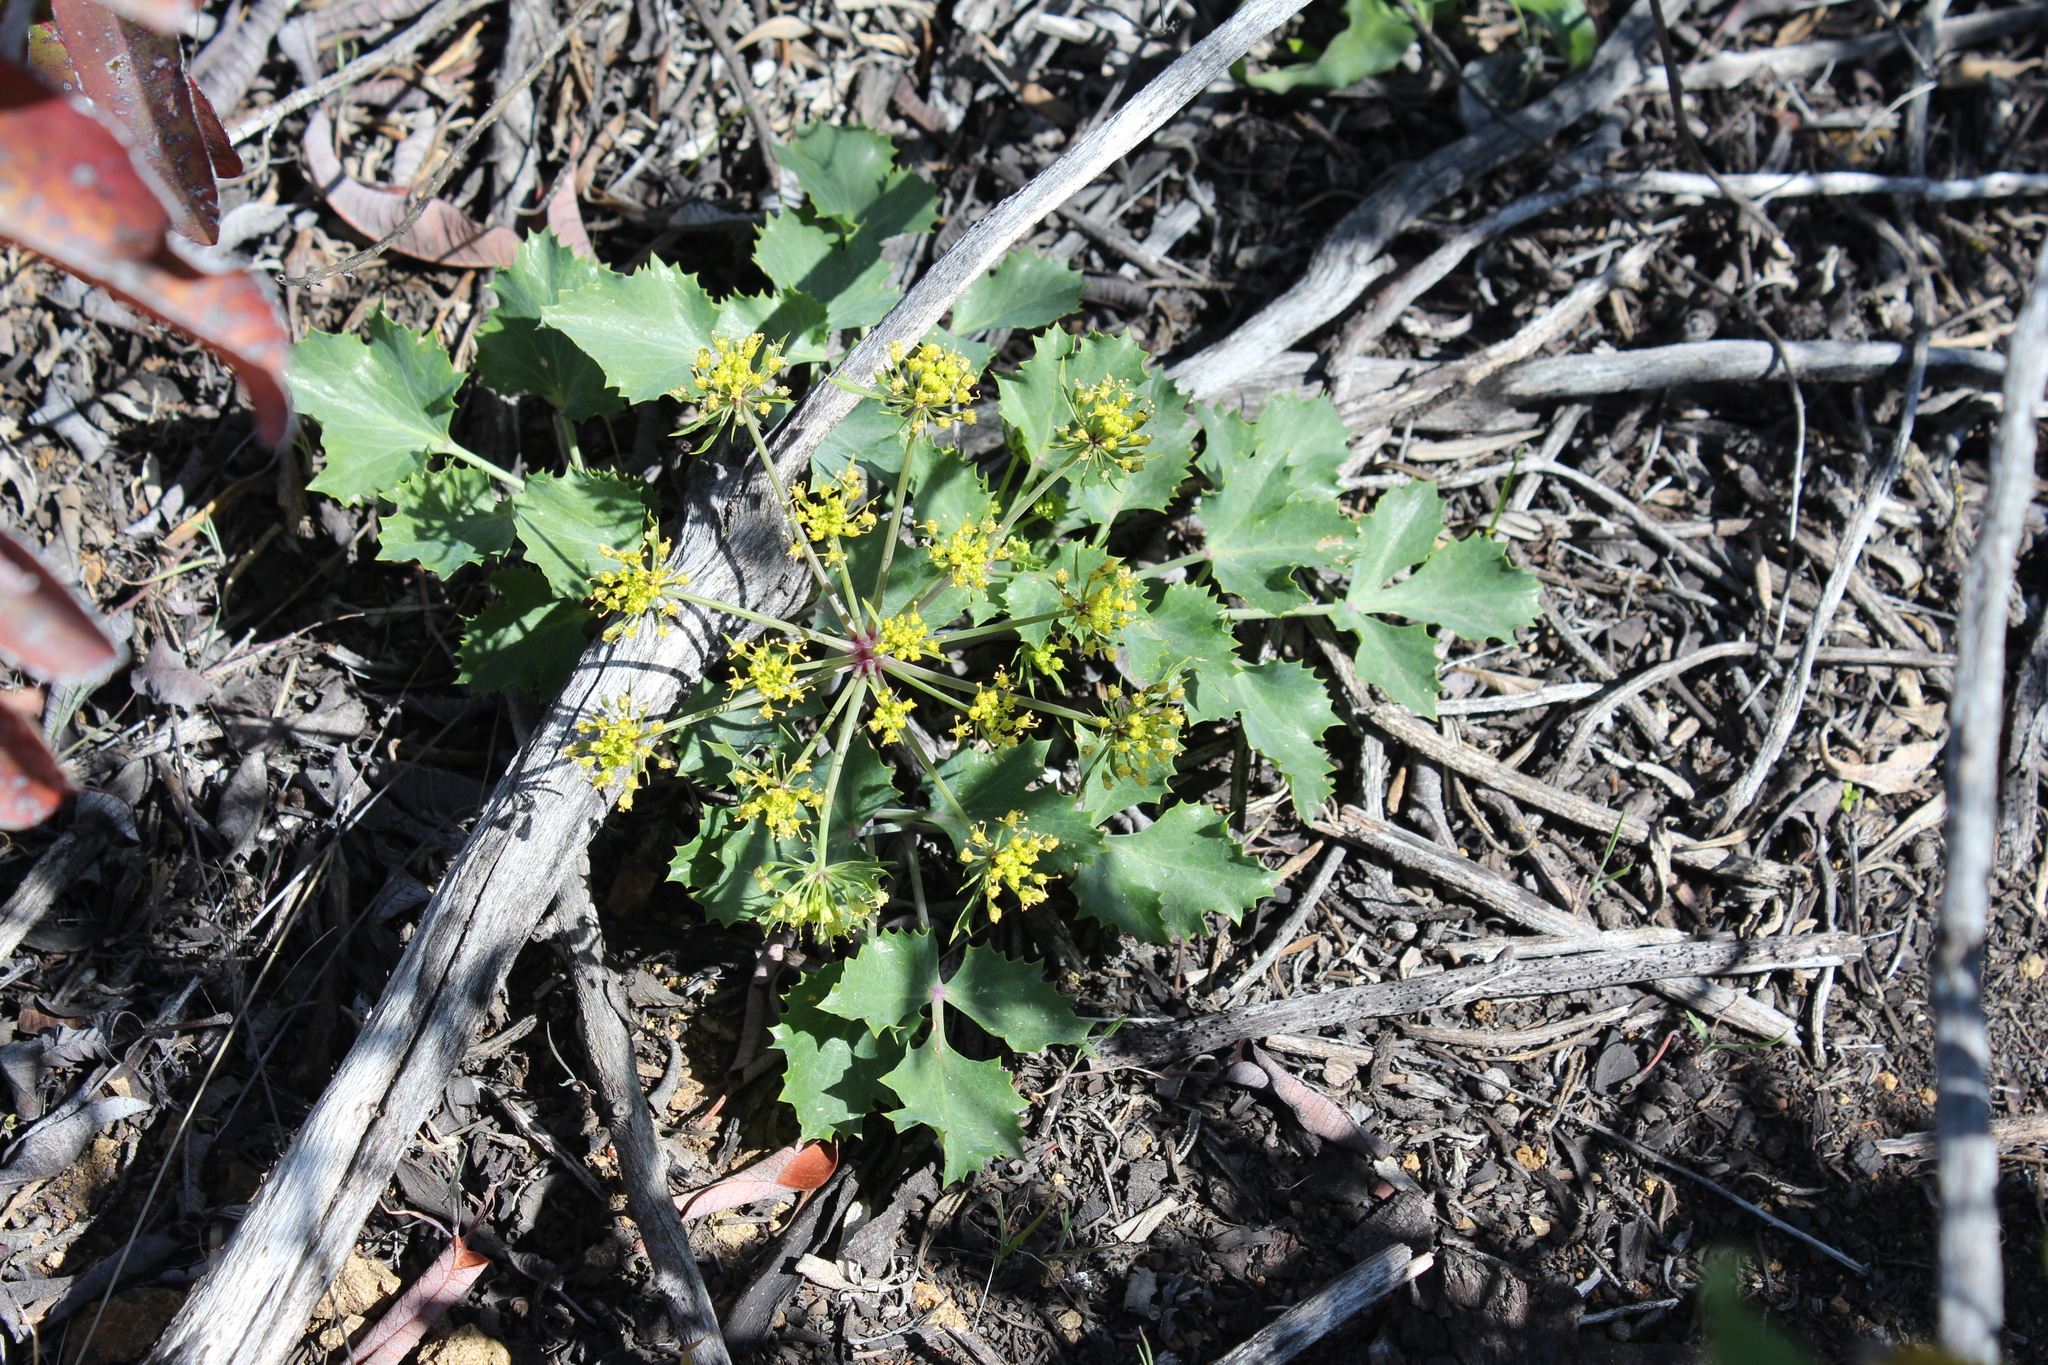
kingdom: Plantae
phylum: Tracheophyta
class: Magnoliopsida
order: Apiales
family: Apiaceae
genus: Lomatium
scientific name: Lomatium lucidum
